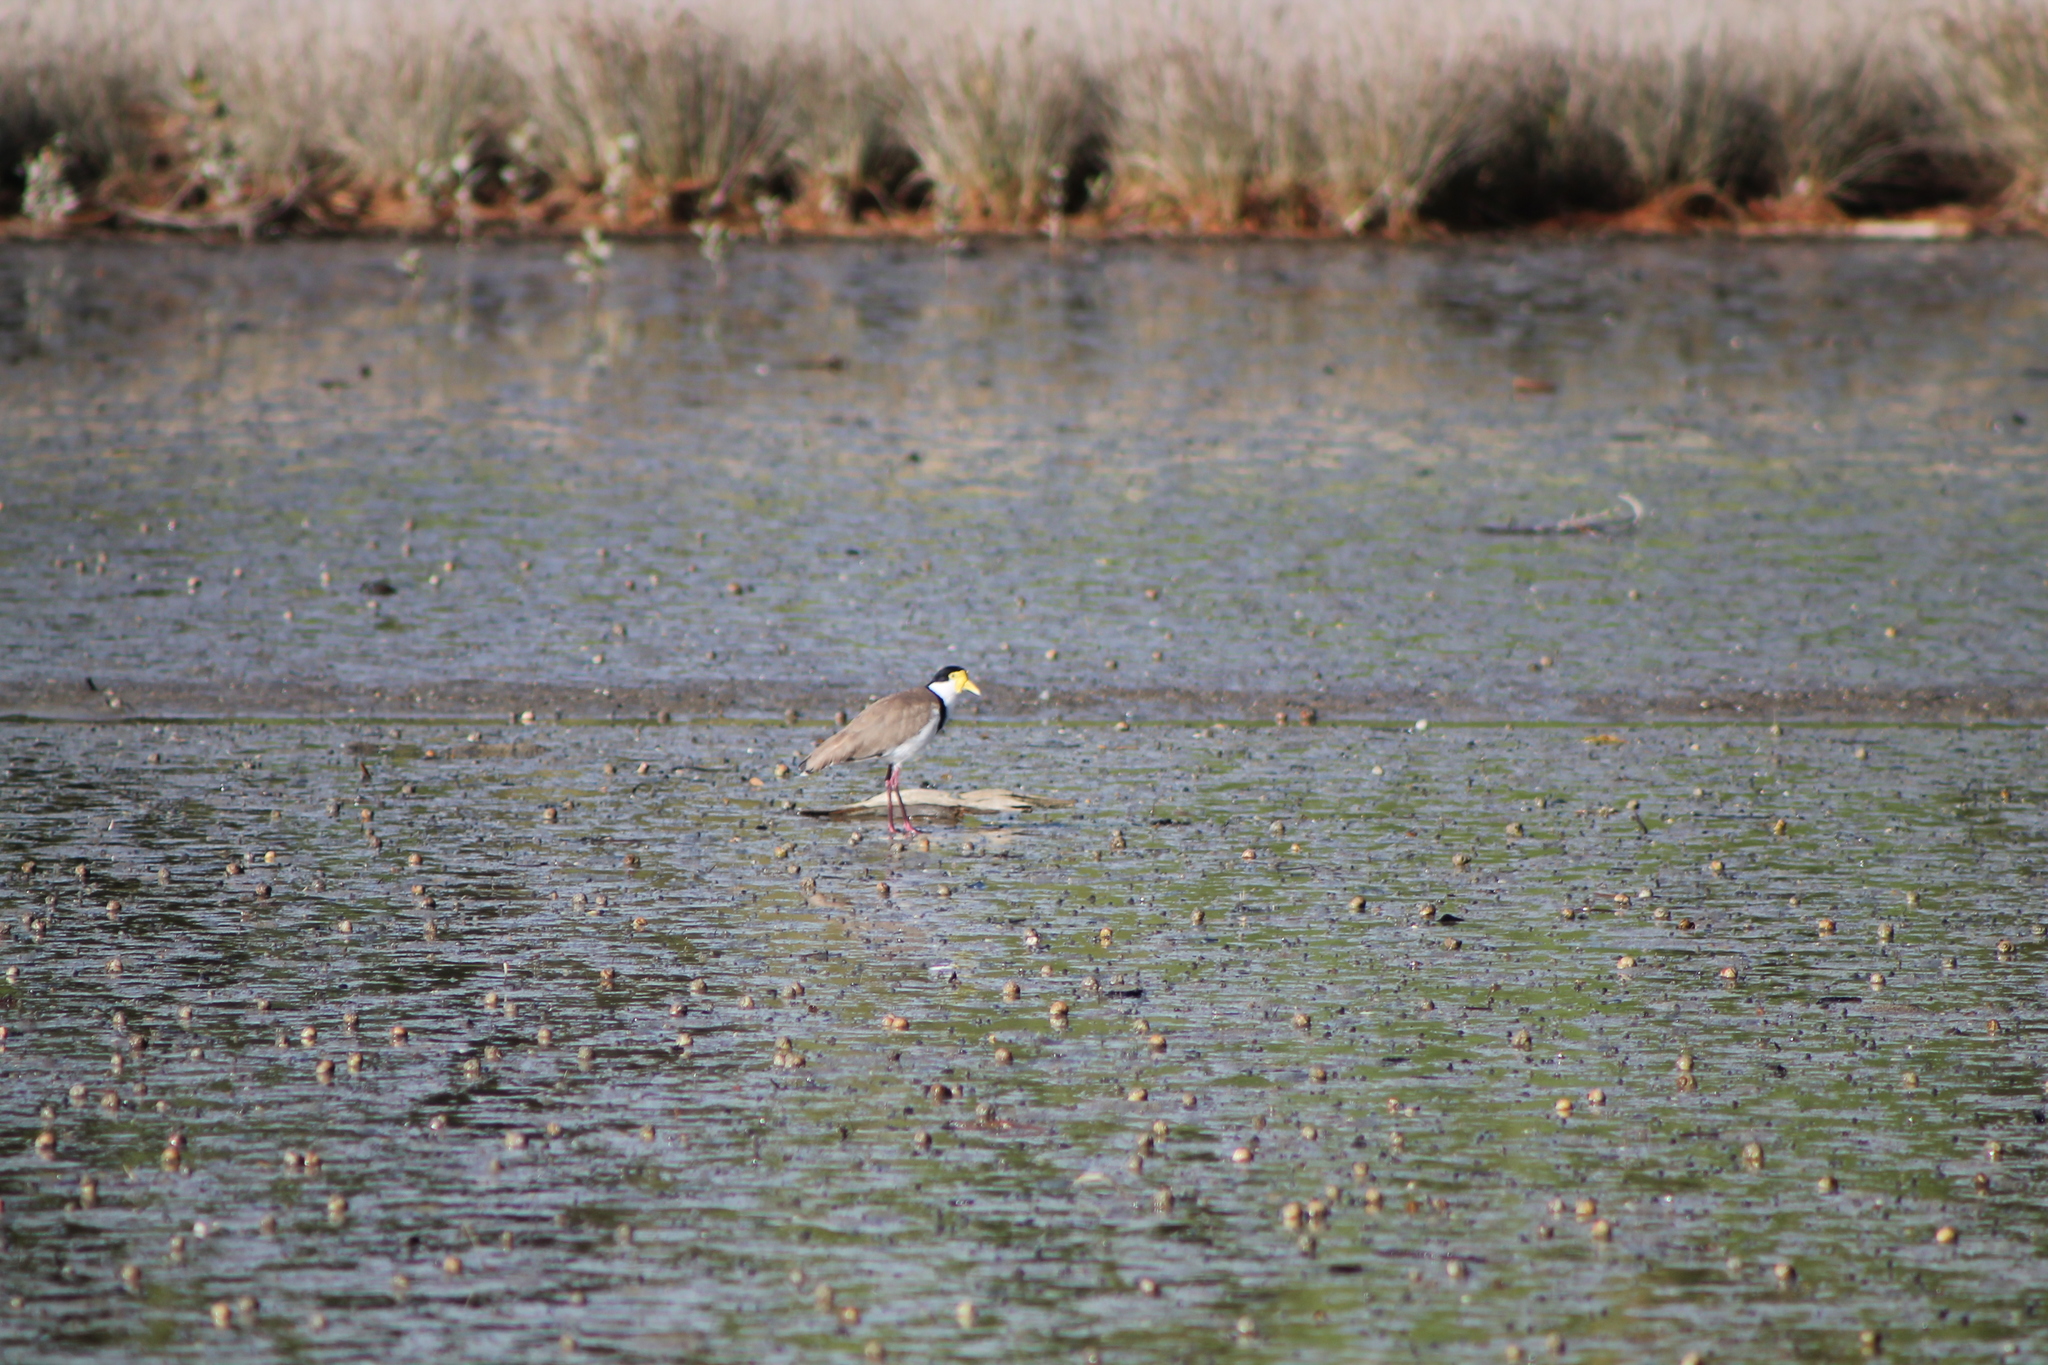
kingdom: Animalia
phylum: Chordata
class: Aves
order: Charadriiformes
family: Charadriidae
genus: Vanellus
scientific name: Vanellus miles
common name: Masked lapwing
